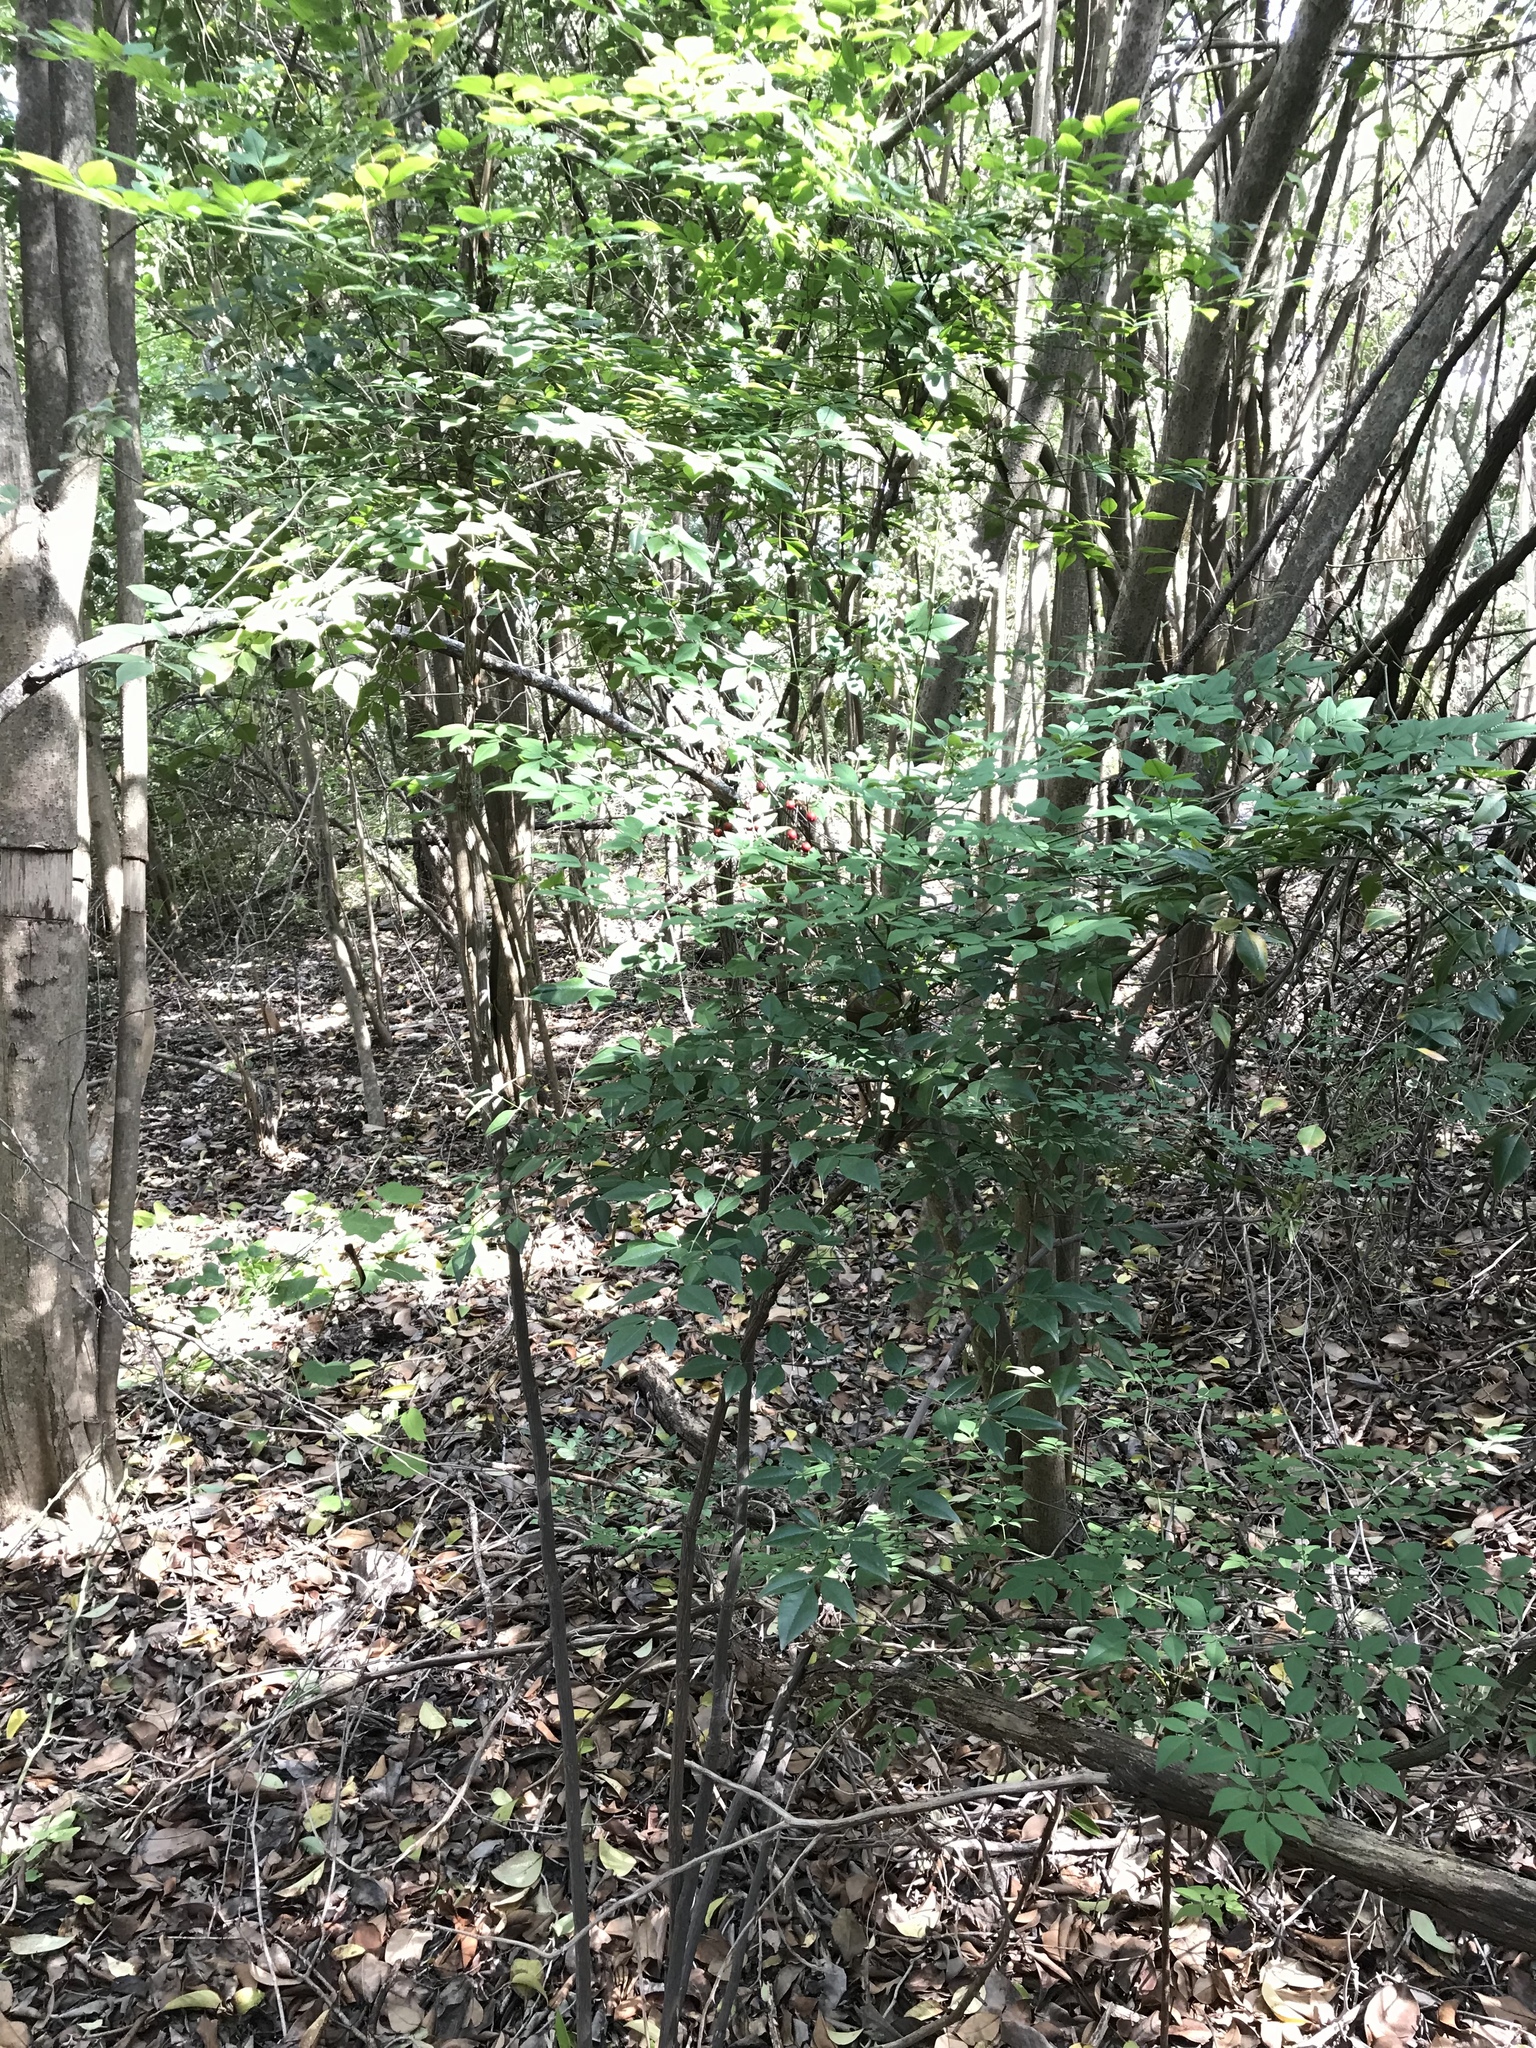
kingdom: Plantae
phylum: Tracheophyta
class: Magnoliopsida
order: Ranunculales
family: Berberidaceae
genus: Nandina
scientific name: Nandina domestica
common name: Sacred bamboo
